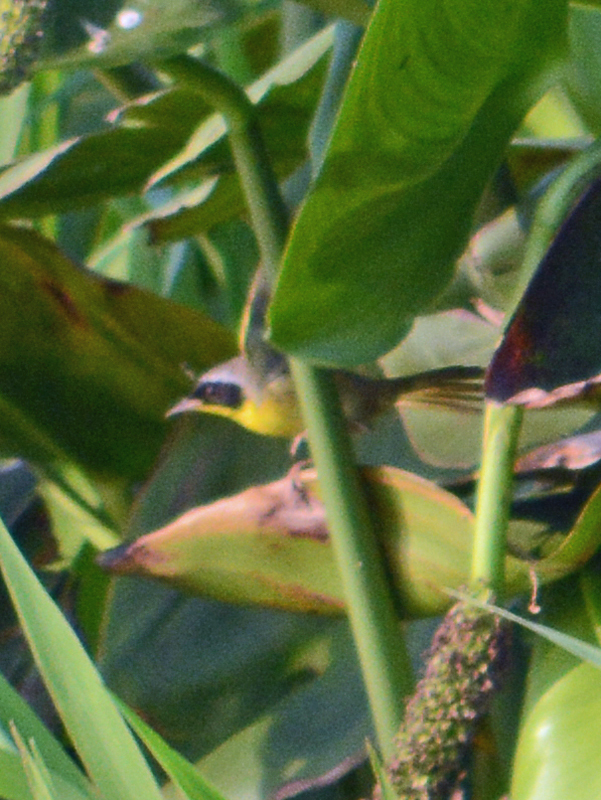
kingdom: Animalia
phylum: Chordata
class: Aves
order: Passeriformes
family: Parulidae
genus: Geothlypis
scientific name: Geothlypis trichas
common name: Common yellowthroat
